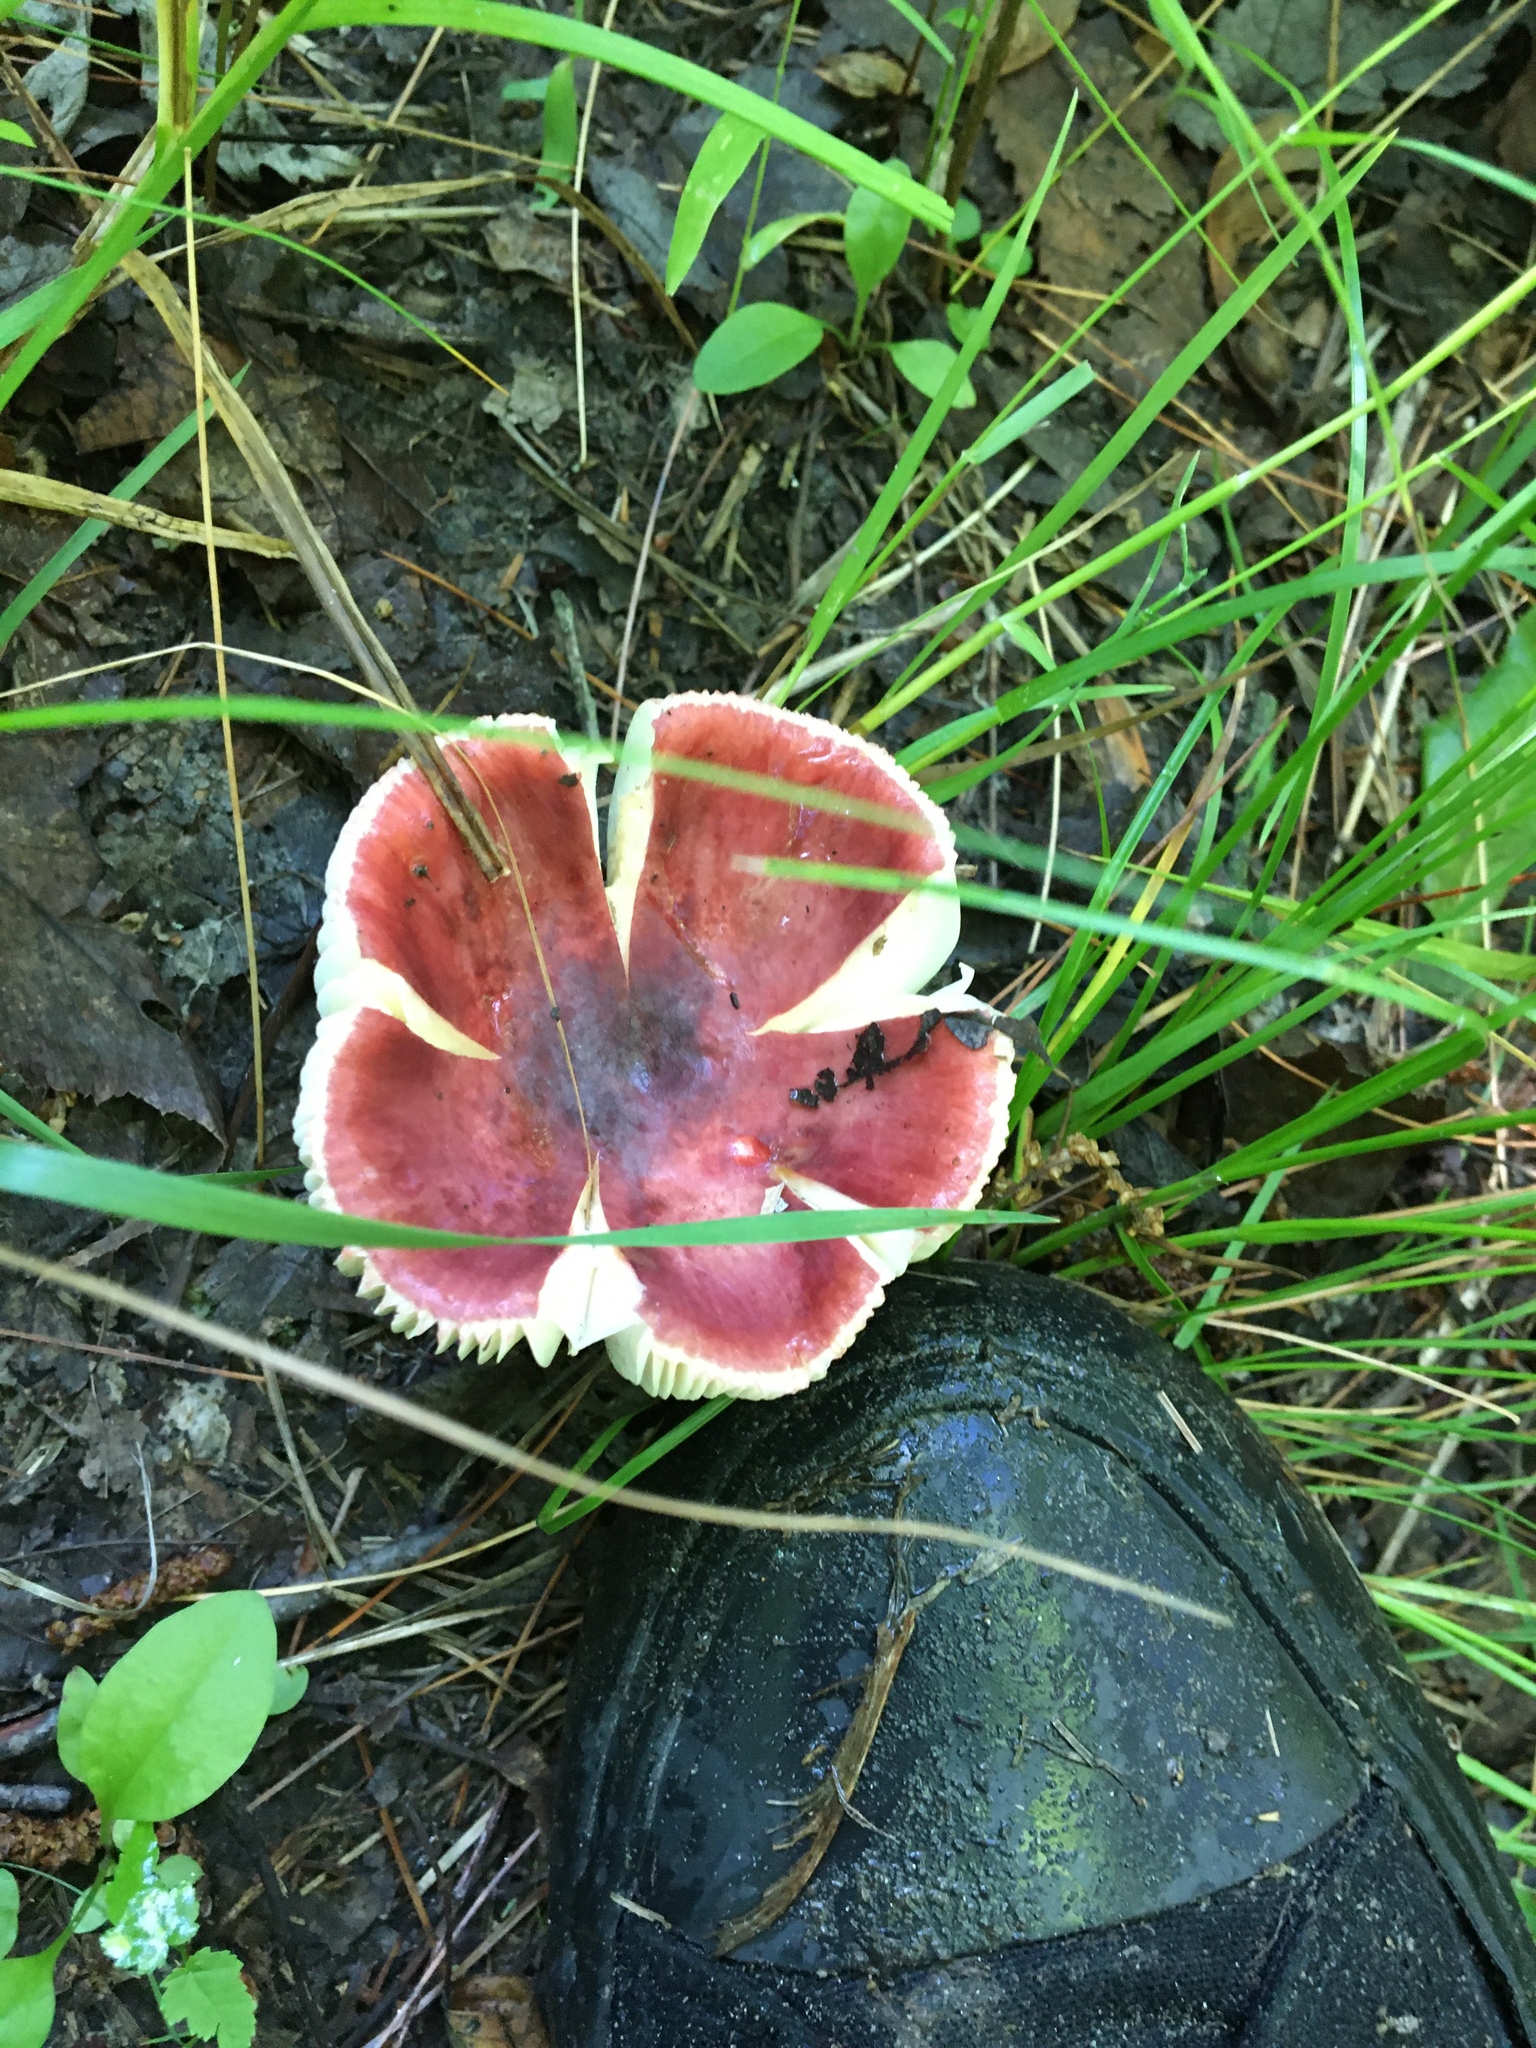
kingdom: Fungi
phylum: Basidiomycota
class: Agaricomycetes
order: Russulales
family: Russulaceae
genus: Russula
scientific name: Russula
